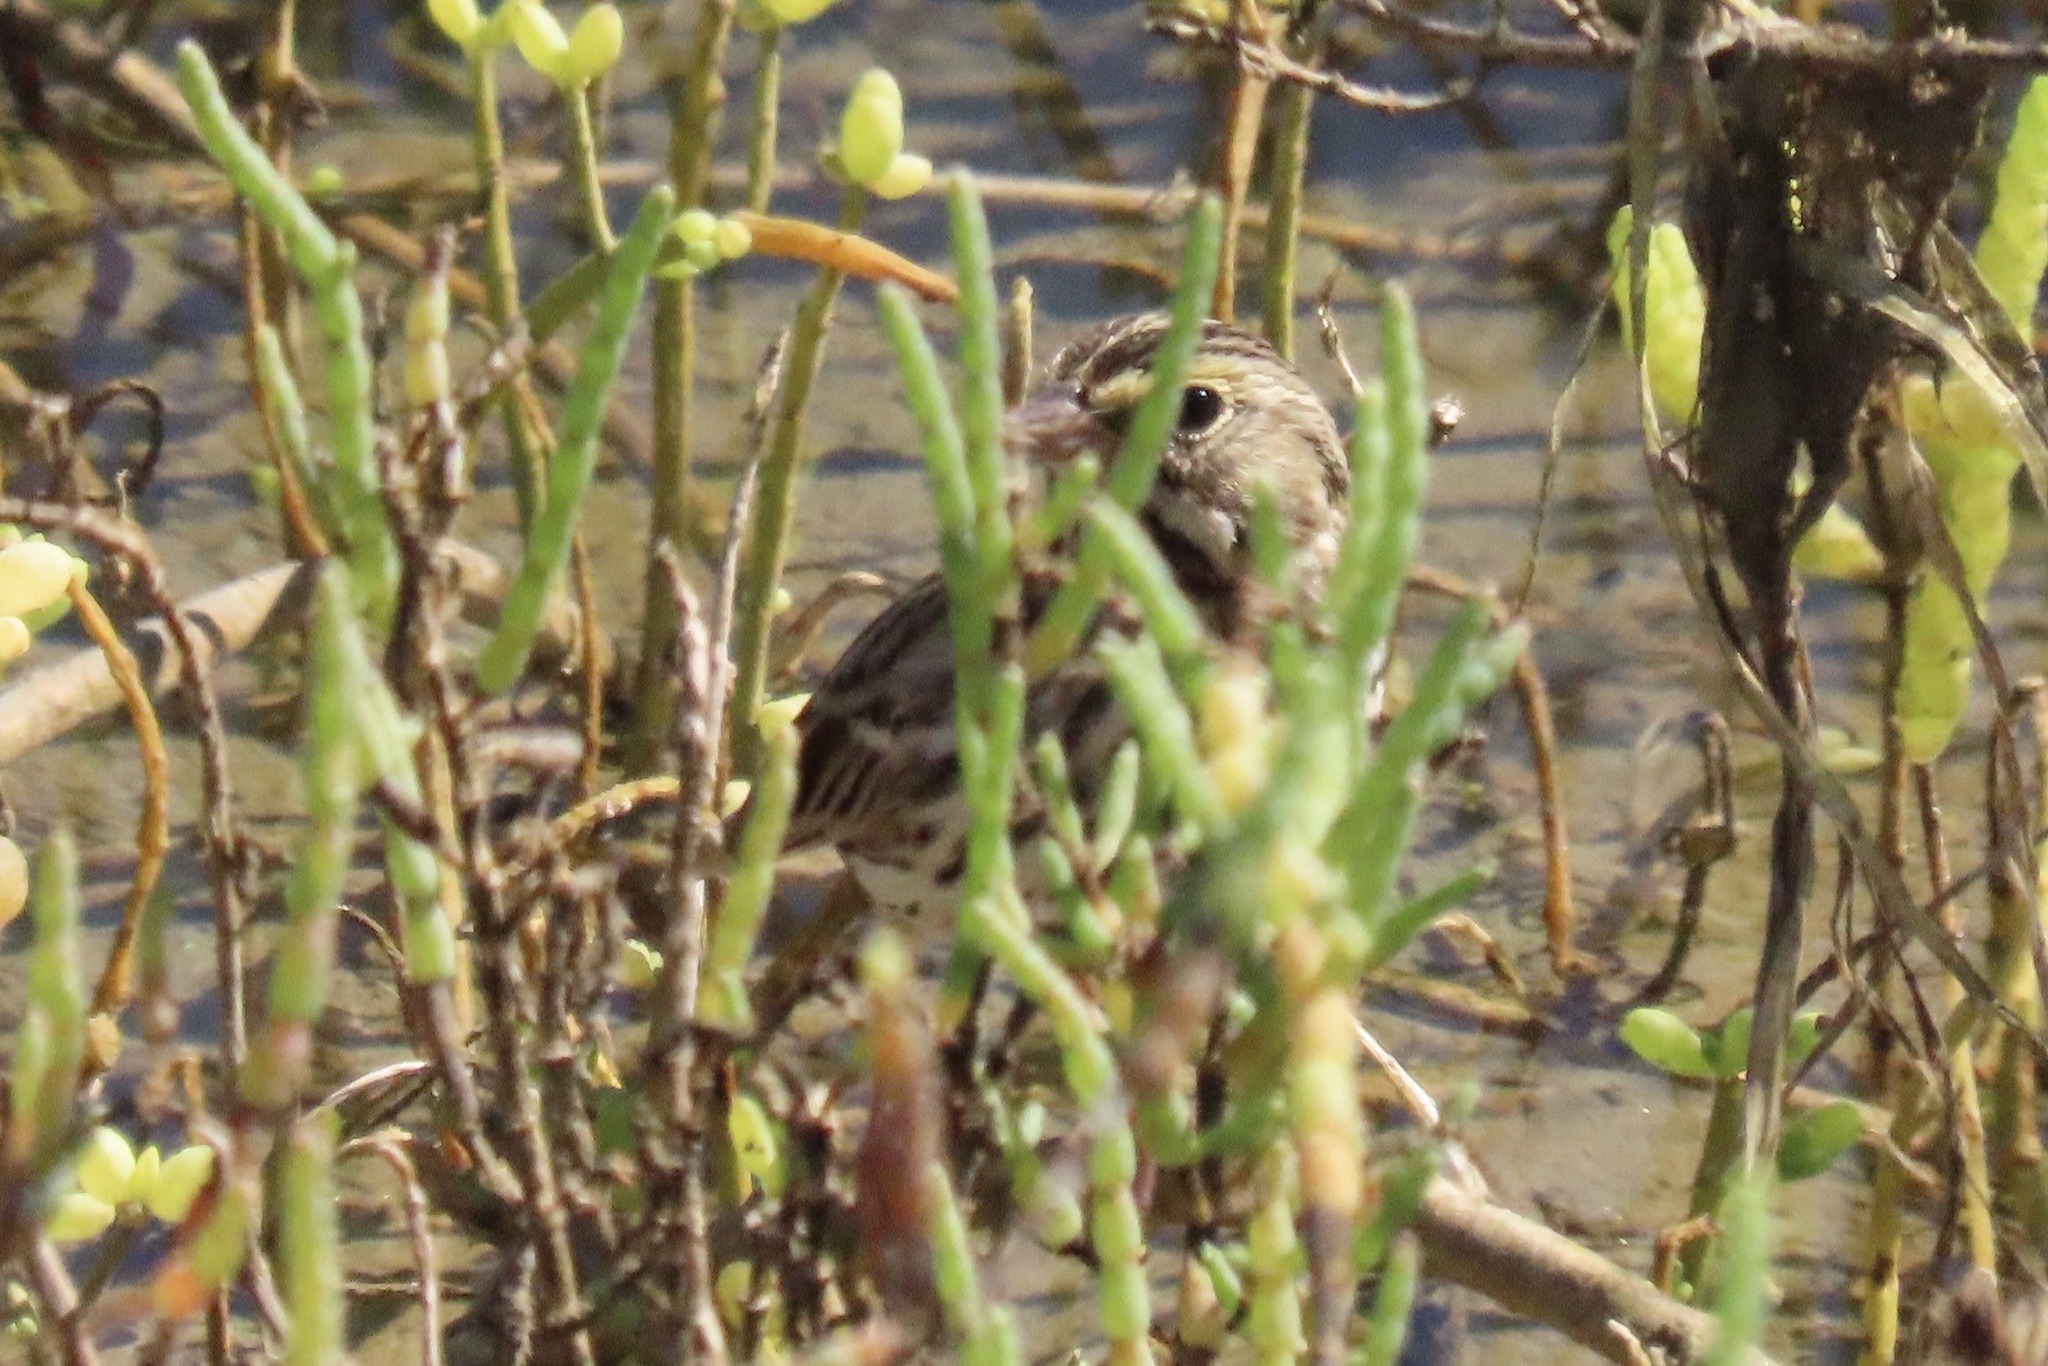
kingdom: Animalia
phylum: Chordata
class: Aves
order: Passeriformes
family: Passerellidae
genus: Passerculus
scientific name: Passerculus sandwichensis
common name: Savannah sparrow
